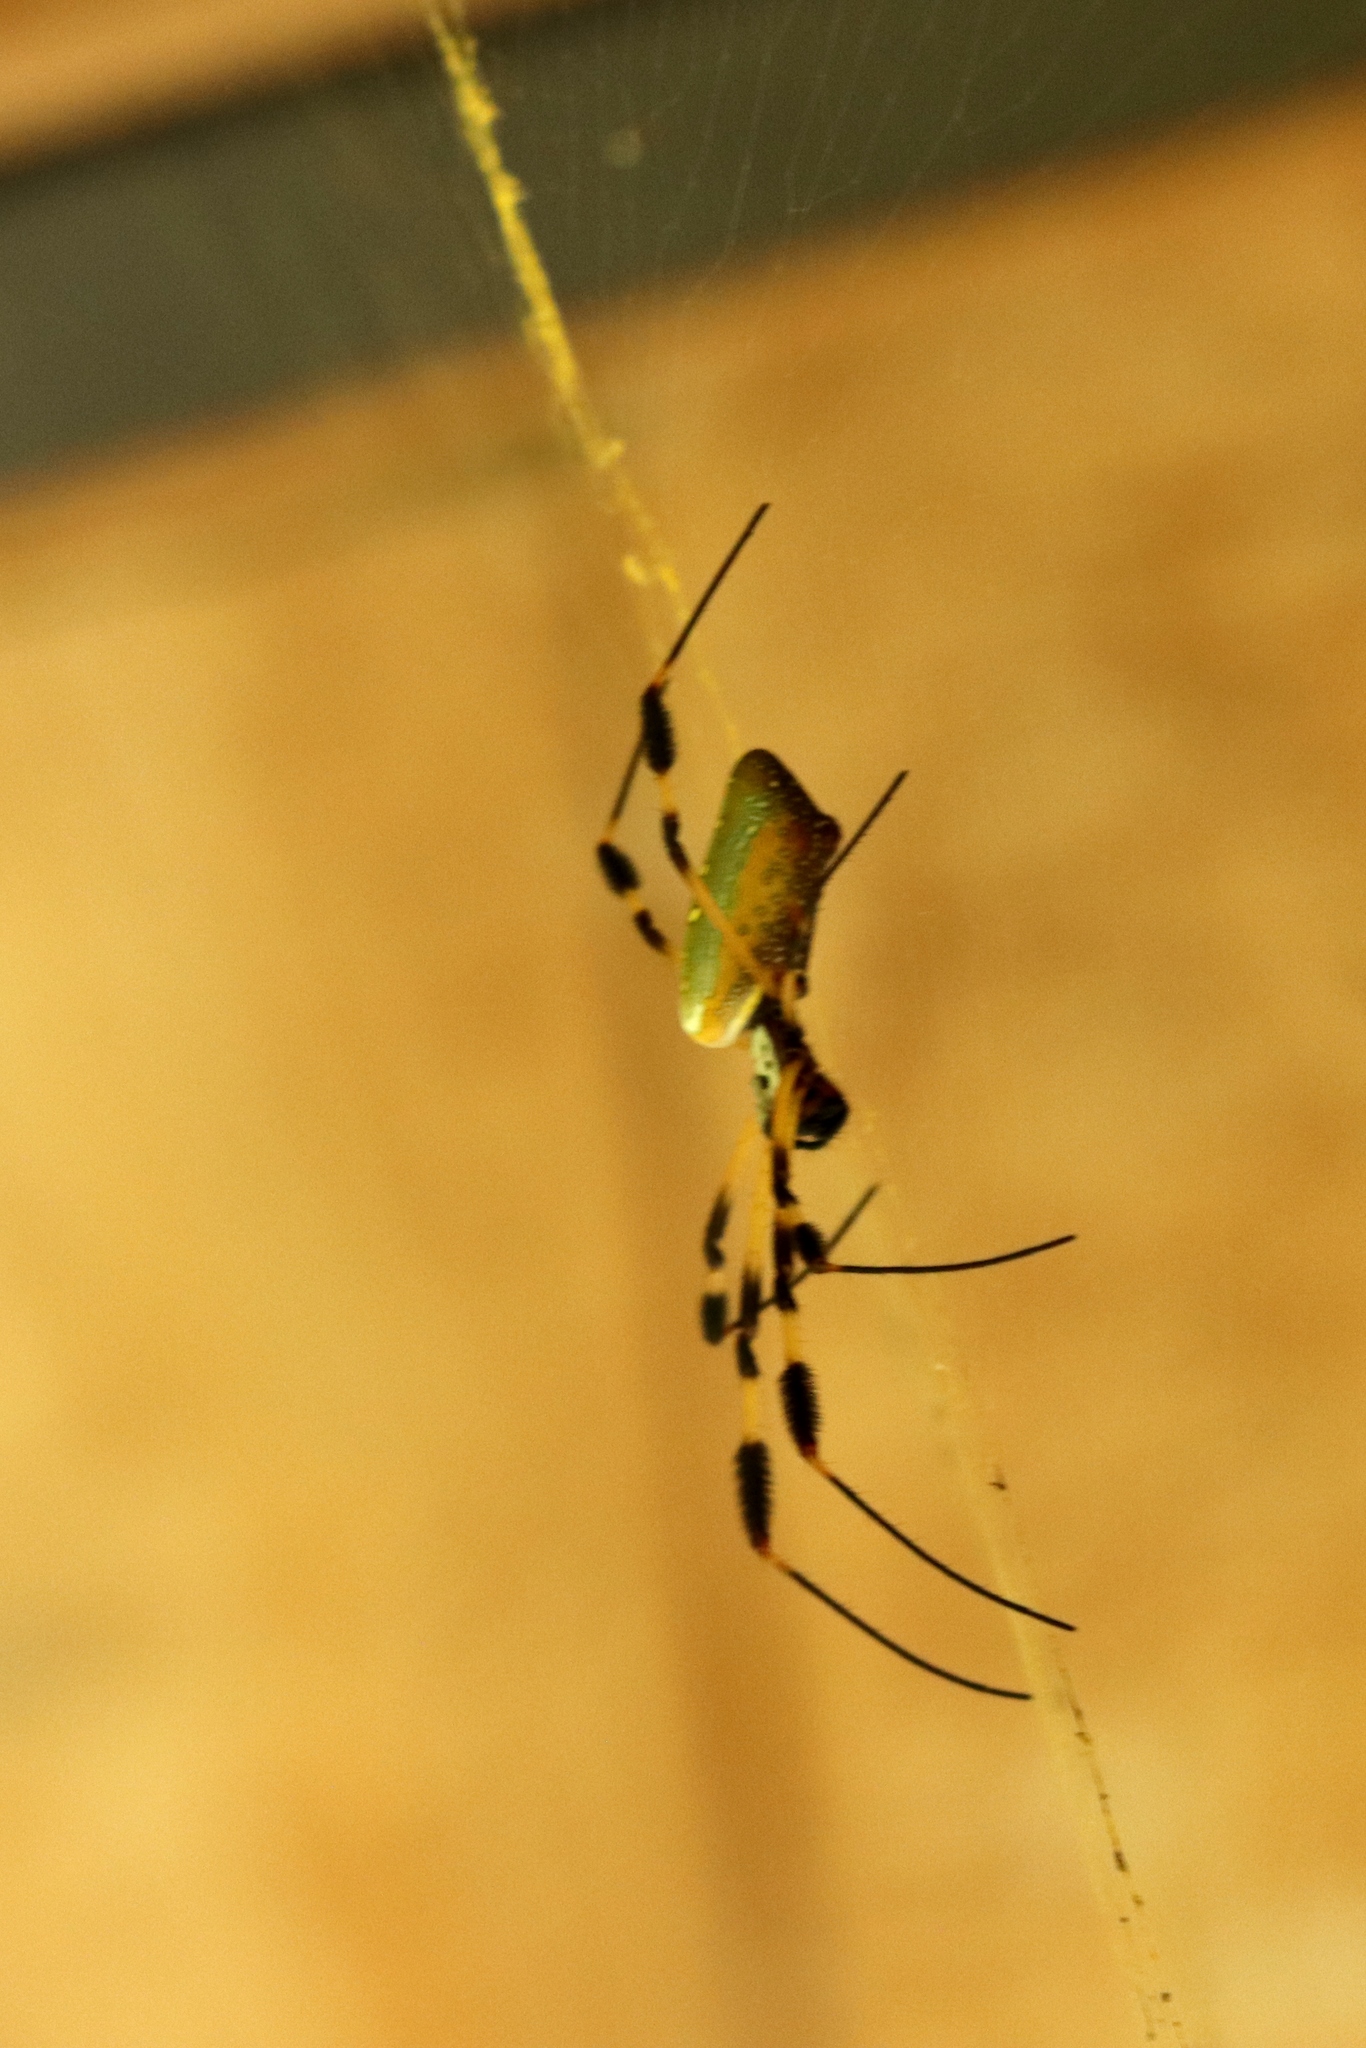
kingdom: Animalia
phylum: Arthropoda
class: Arachnida
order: Araneae
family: Araneidae
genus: Trichonephila
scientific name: Trichonephila clavipes
